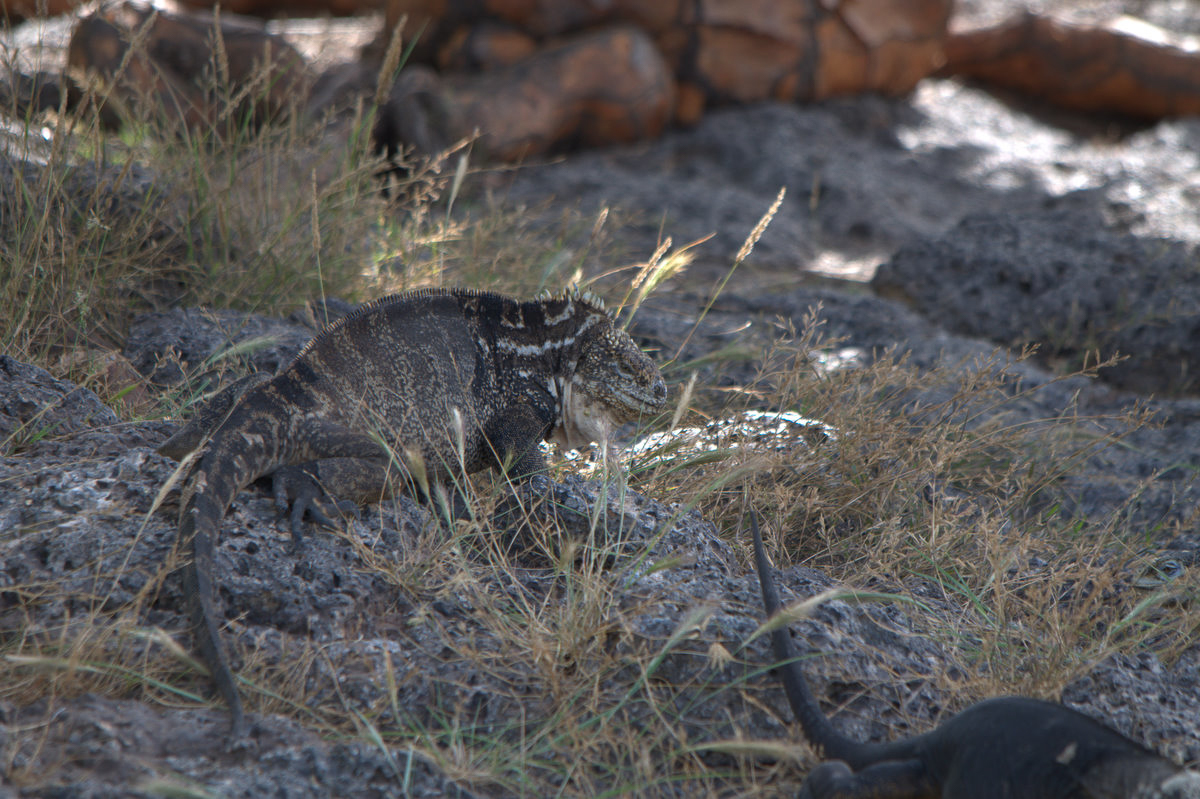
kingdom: Animalia
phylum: Chordata
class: Squamata
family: Iguanidae
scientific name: Iguanidae
